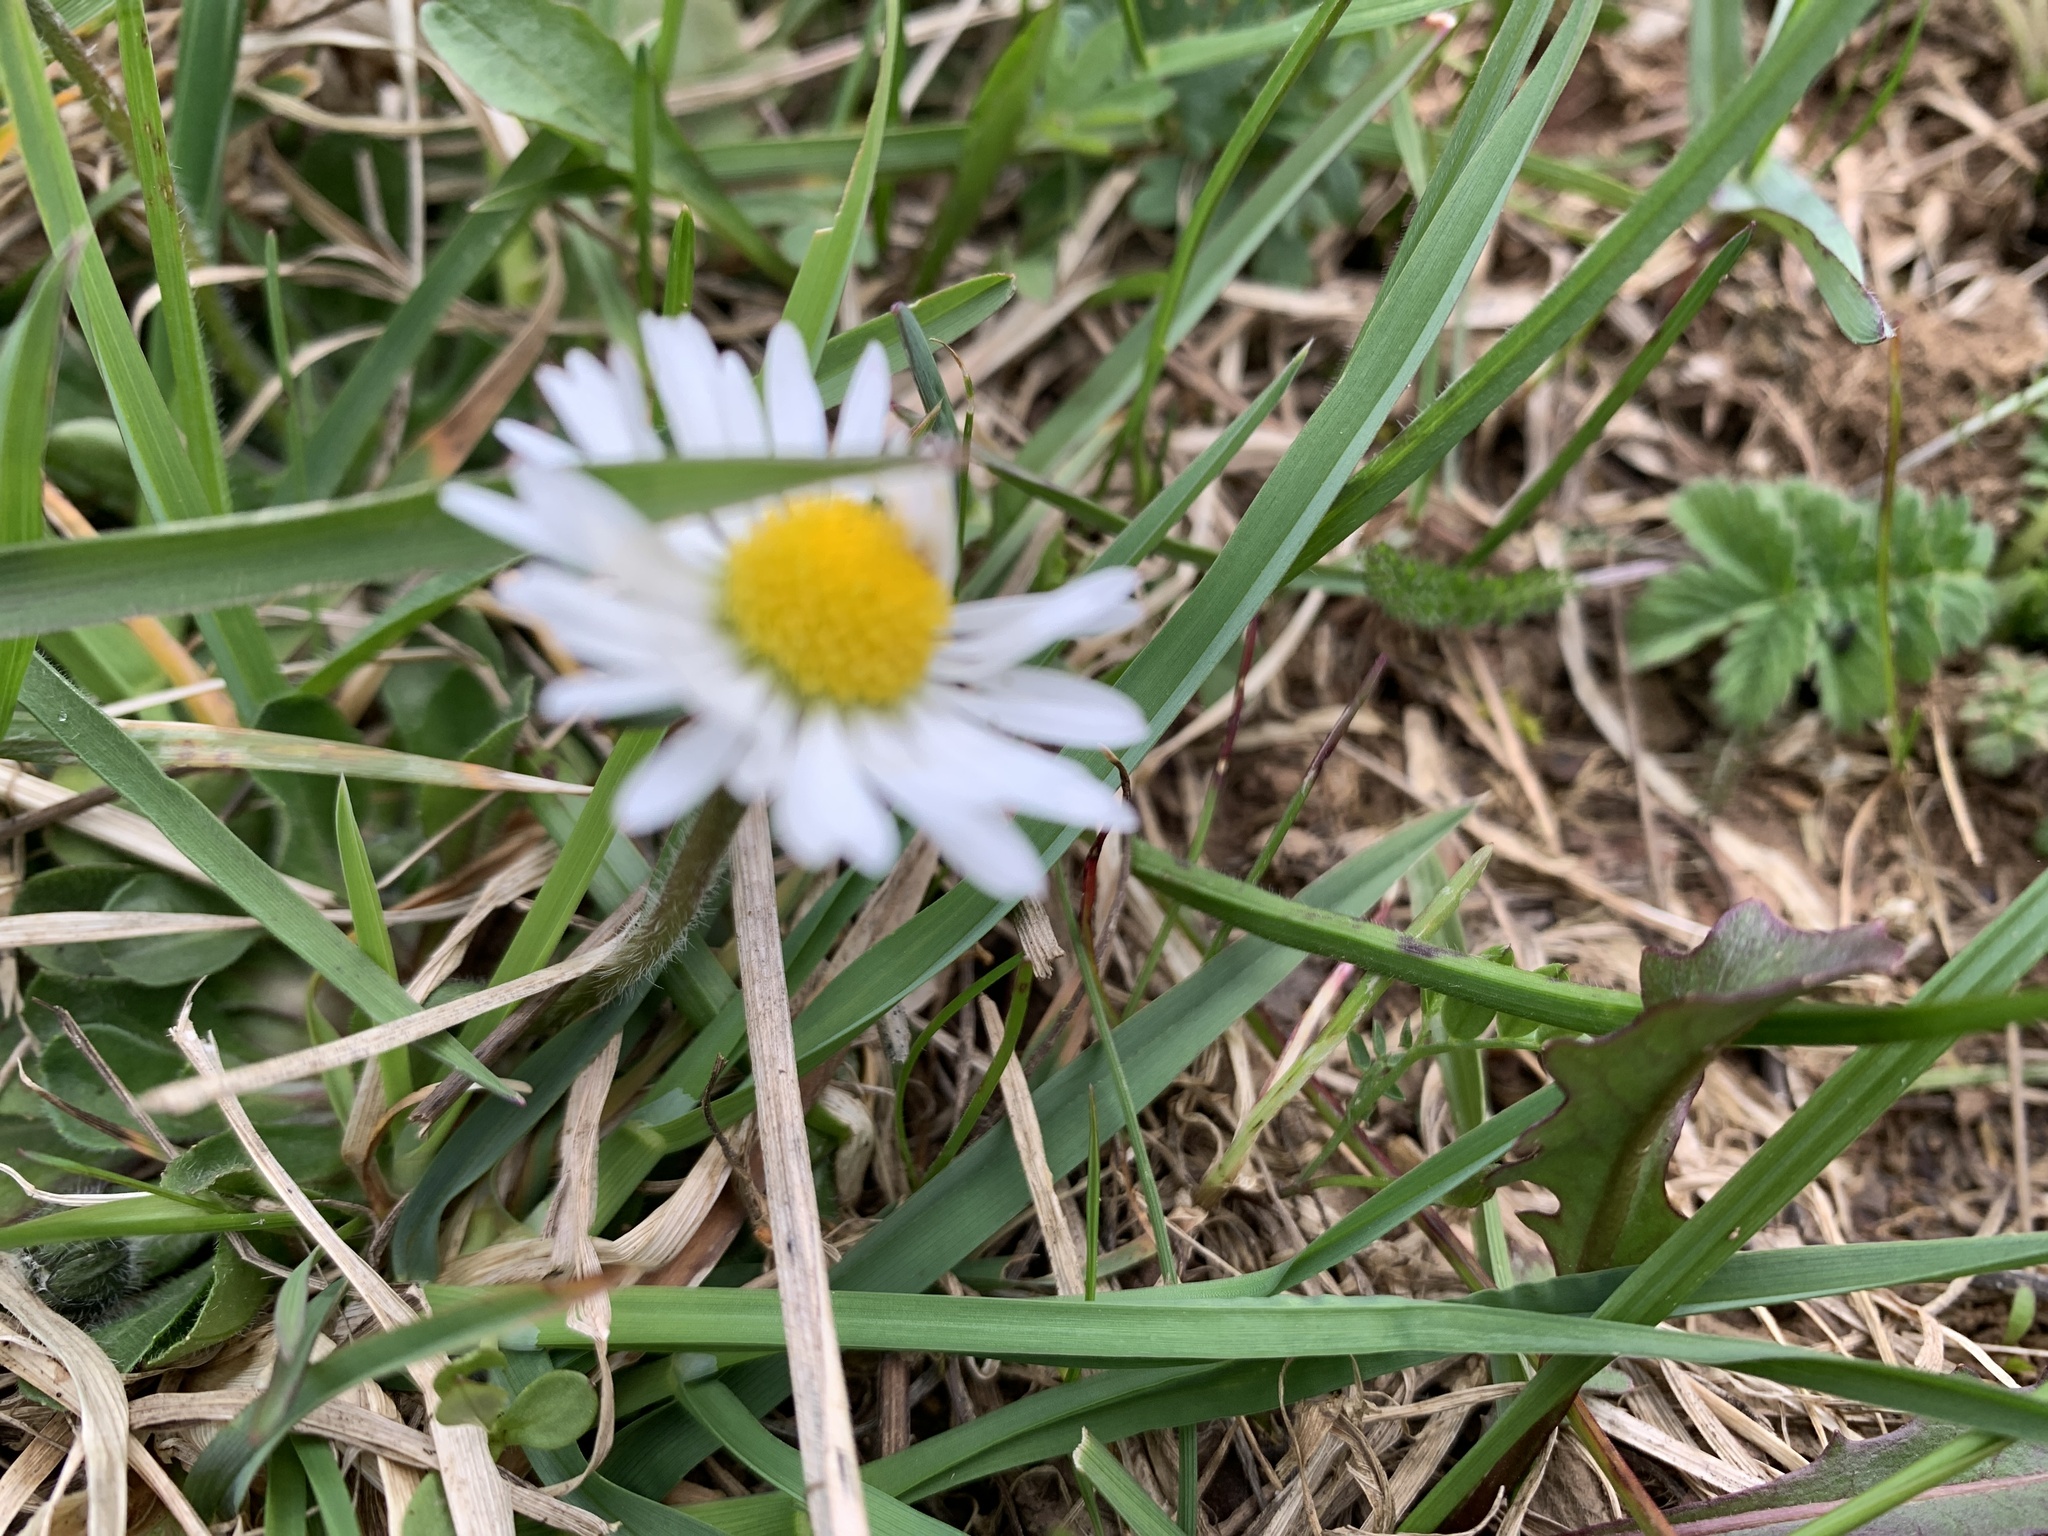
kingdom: Plantae
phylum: Tracheophyta
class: Magnoliopsida
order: Asterales
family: Asteraceae
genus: Bellis
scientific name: Bellis perennis
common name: Lawndaisy
